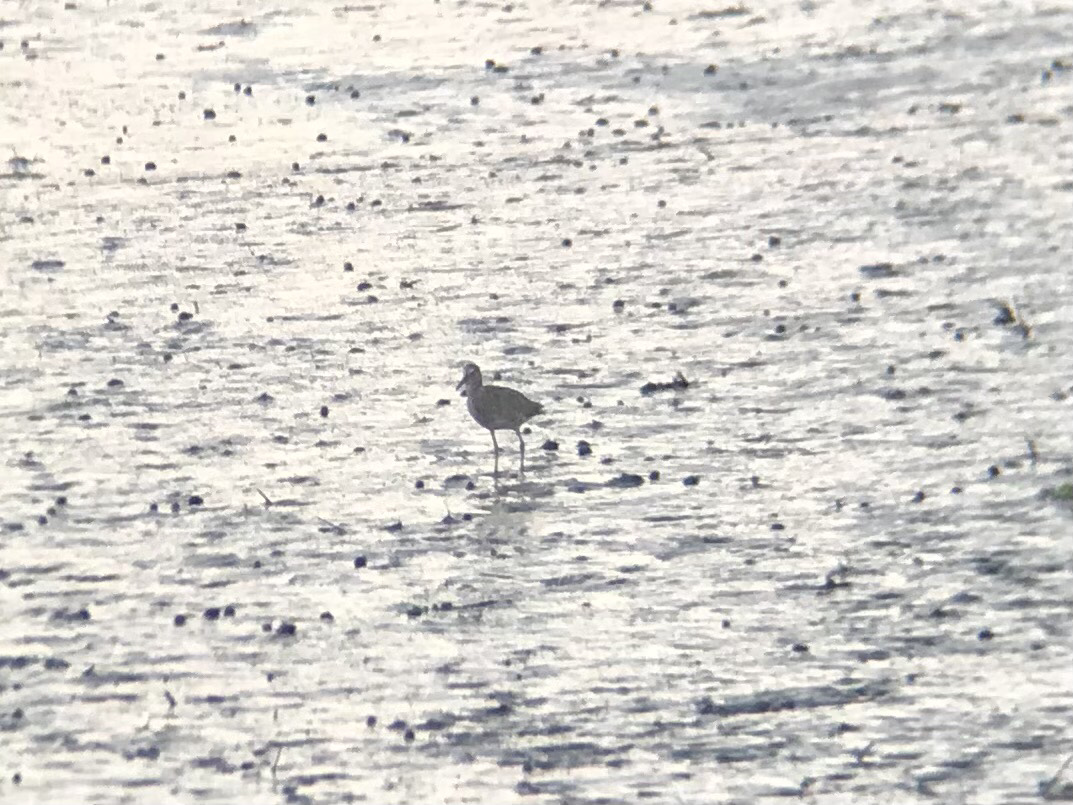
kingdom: Animalia
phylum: Chordata
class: Aves
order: Charadriiformes
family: Scolopacidae
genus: Tringa
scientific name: Tringa semipalmata
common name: Willet
